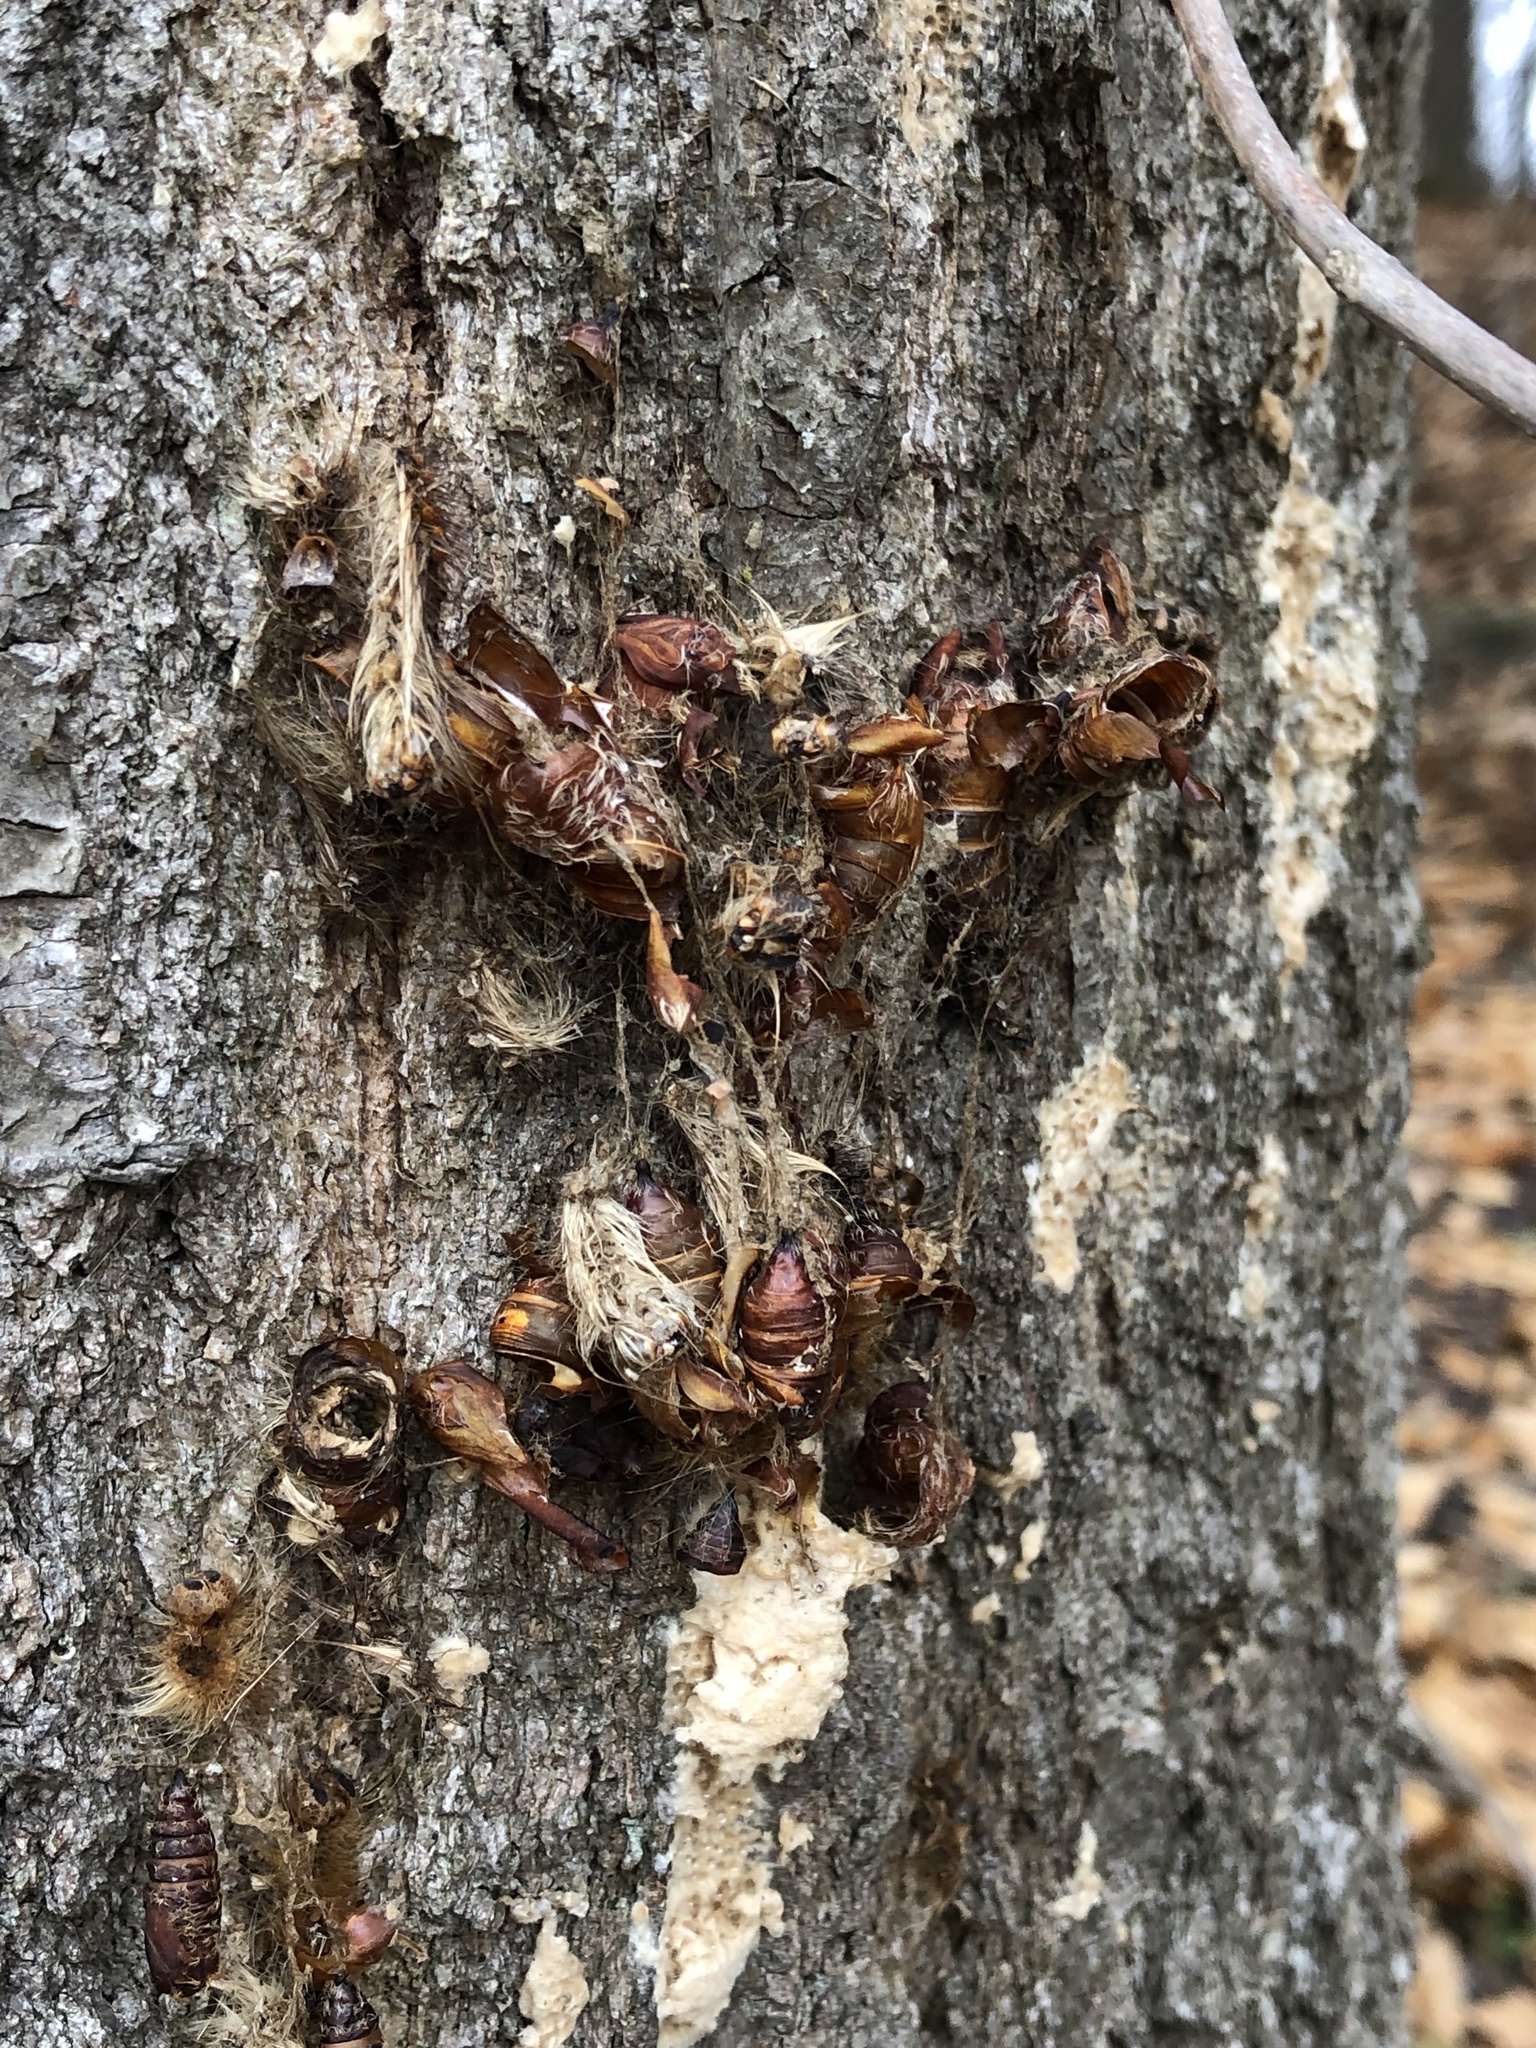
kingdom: Animalia
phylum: Arthropoda
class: Insecta
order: Lepidoptera
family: Erebidae
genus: Lymantria
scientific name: Lymantria dispar
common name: Gypsy moth
